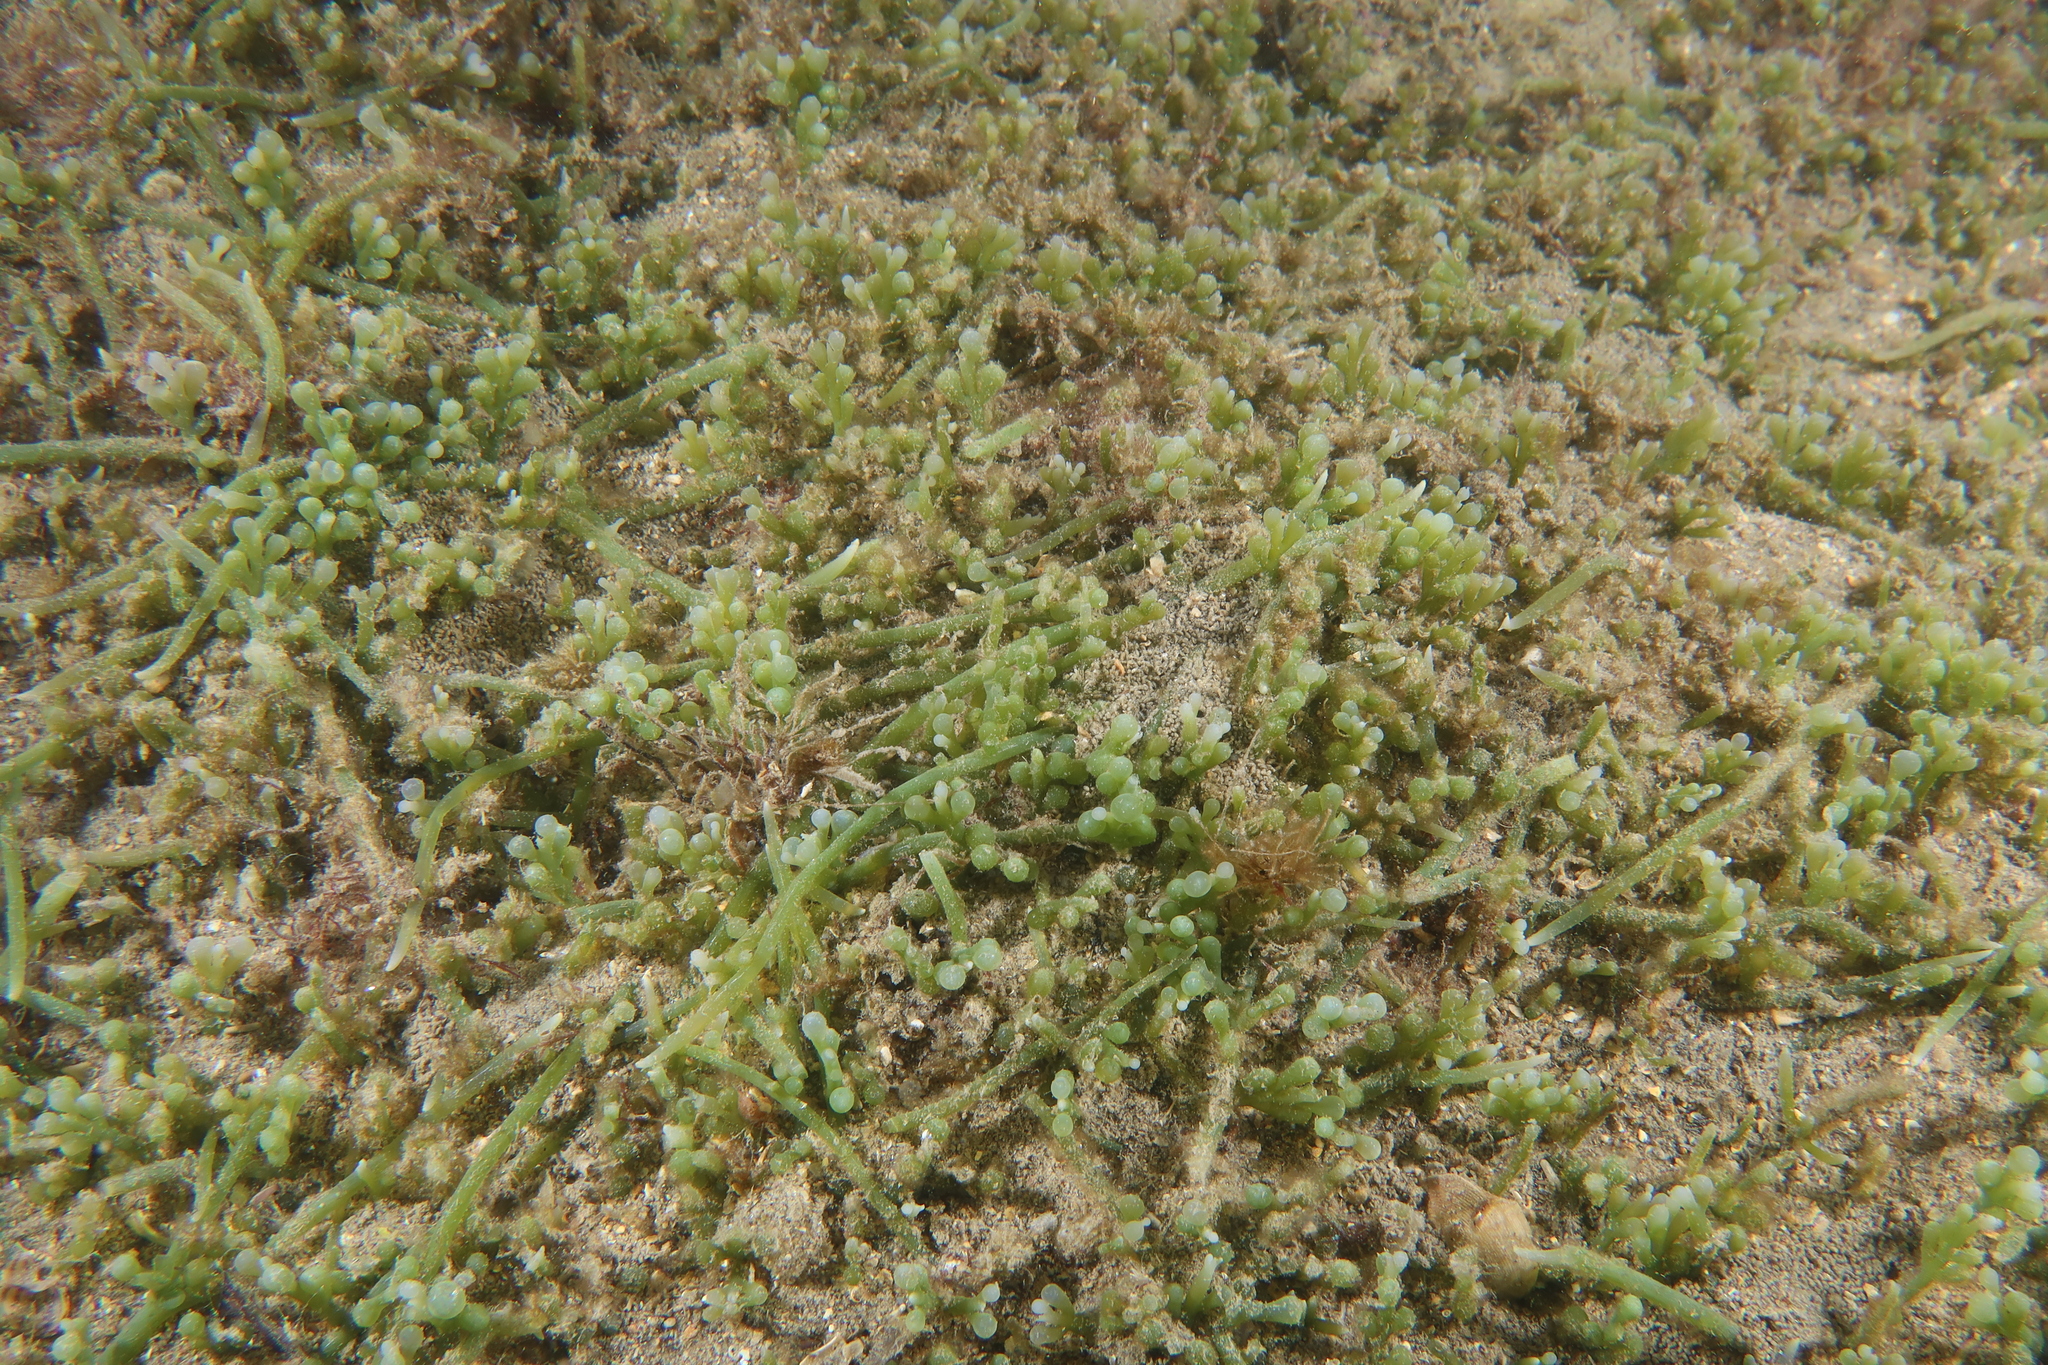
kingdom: Plantae
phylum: Chlorophyta
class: Ulvophyceae
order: Bryopsidales
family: Caulerpaceae
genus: Caulerpa
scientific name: Caulerpa cylindracea
